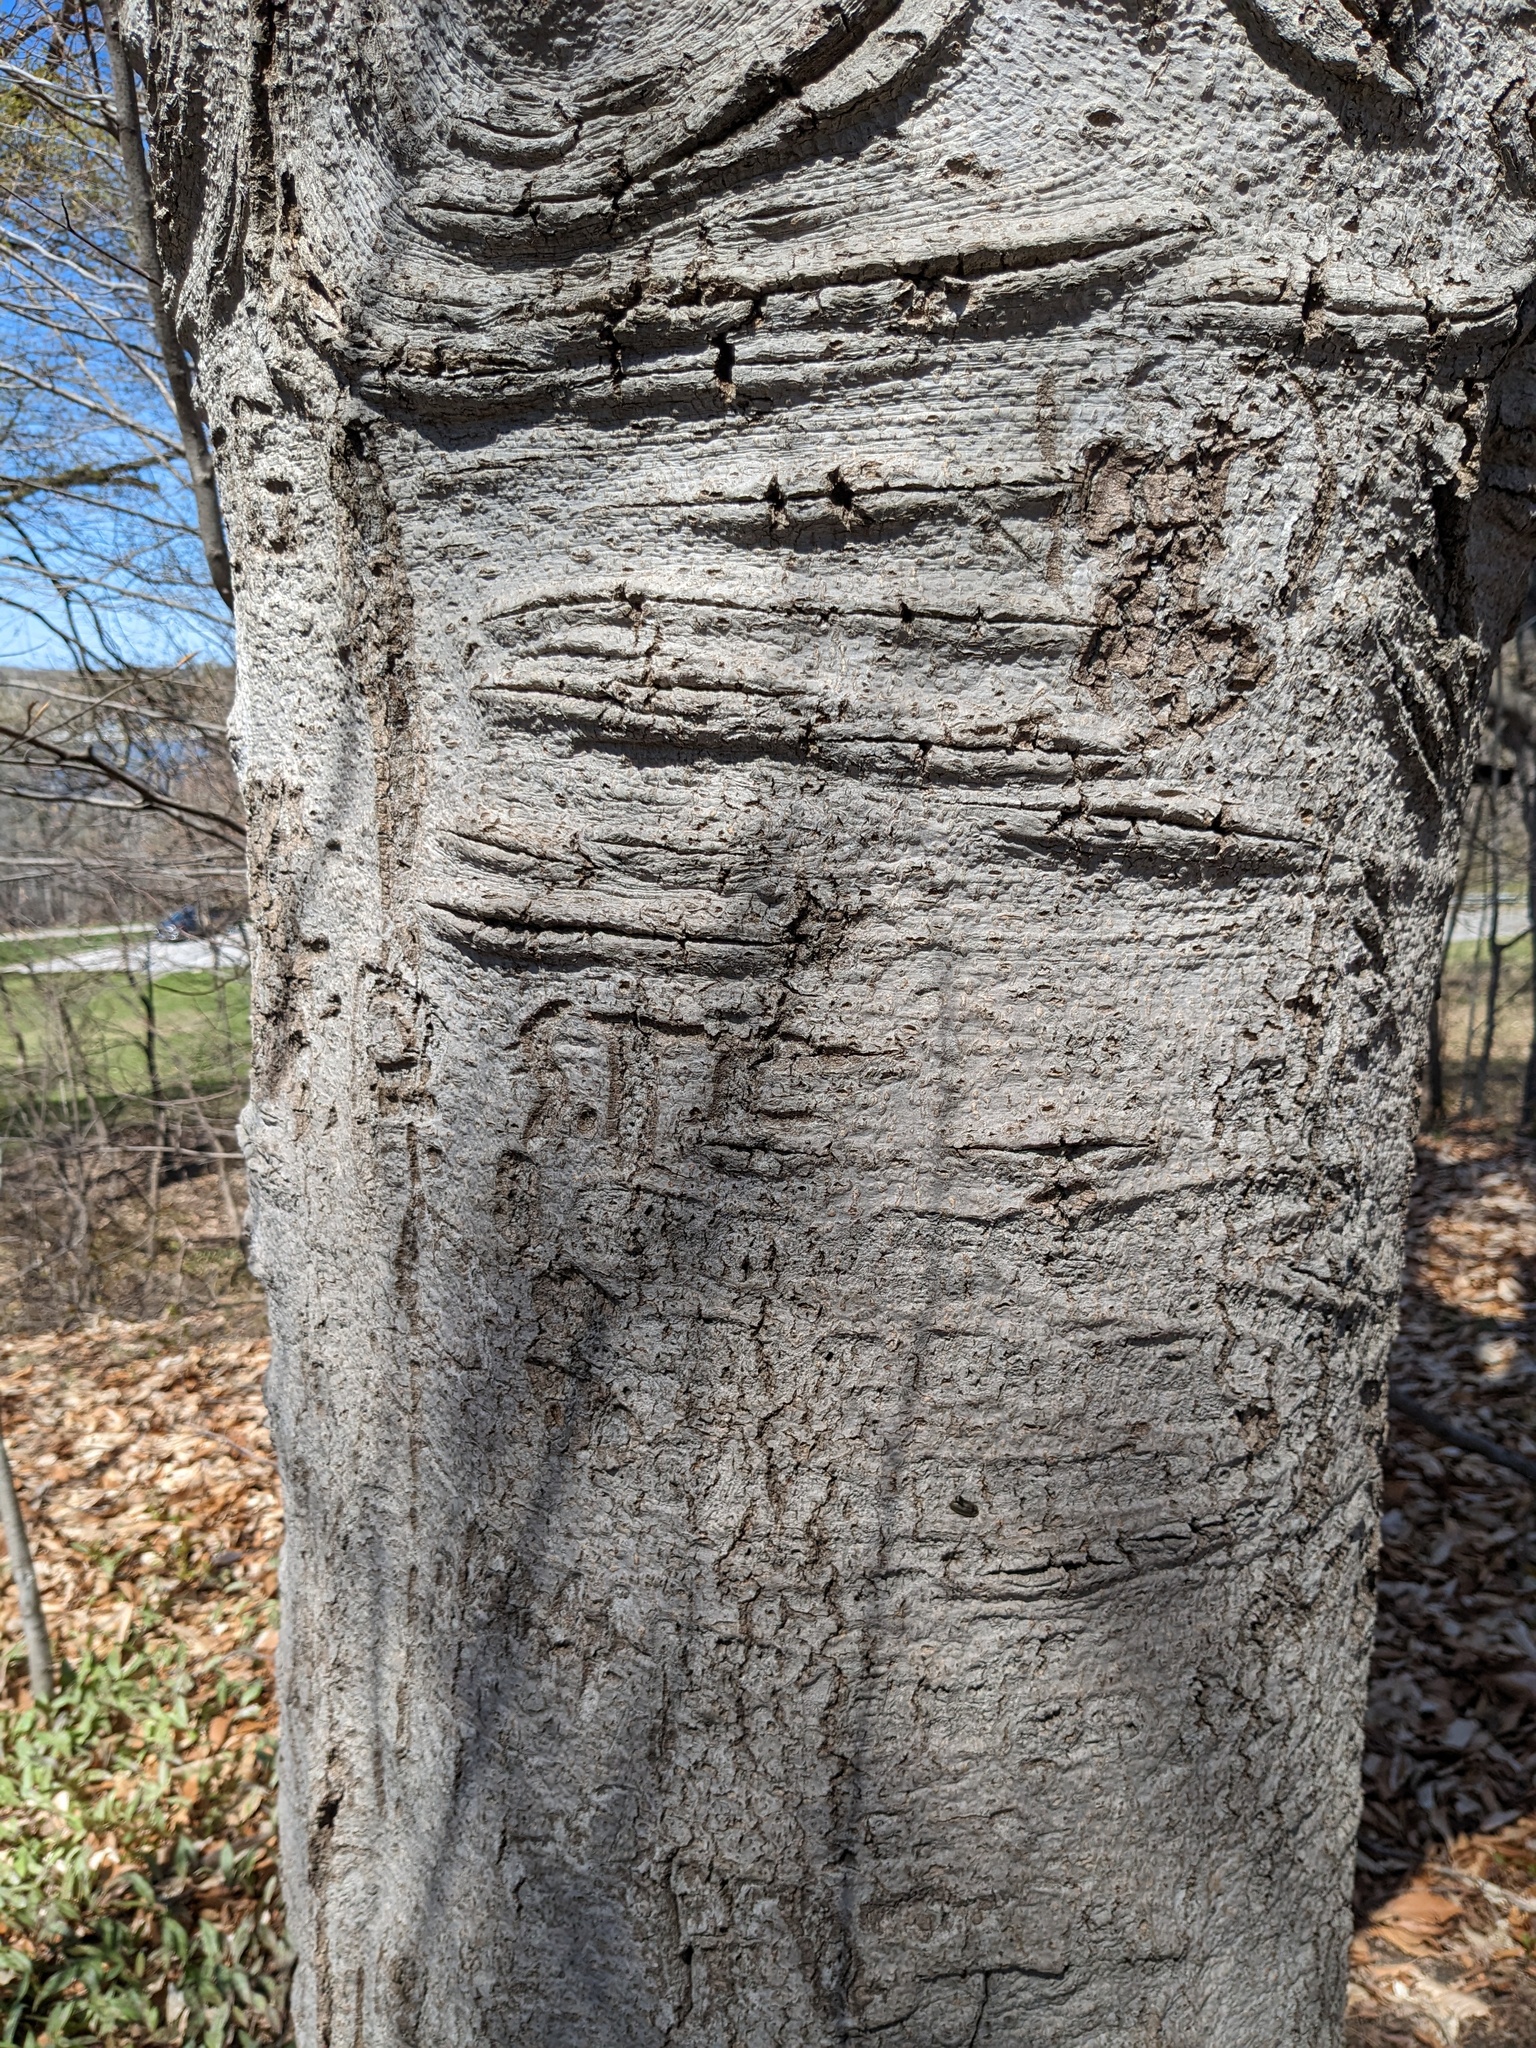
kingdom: Plantae
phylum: Tracheophyta
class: Magnoliopsida
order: Fagales
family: Fagaceae
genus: Fagus
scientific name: Fagus grandifolia
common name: American beech
